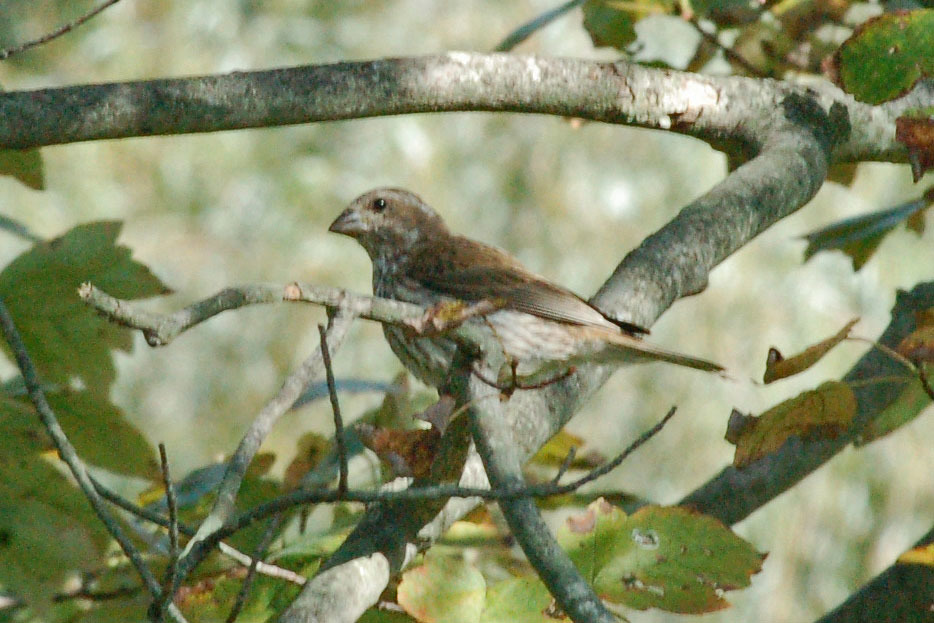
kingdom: Animalia
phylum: Chordata
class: Aves
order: Passeriformes
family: Fringillidae
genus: Haemorhous
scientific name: Haemorhous purpureus
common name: Purple finch
